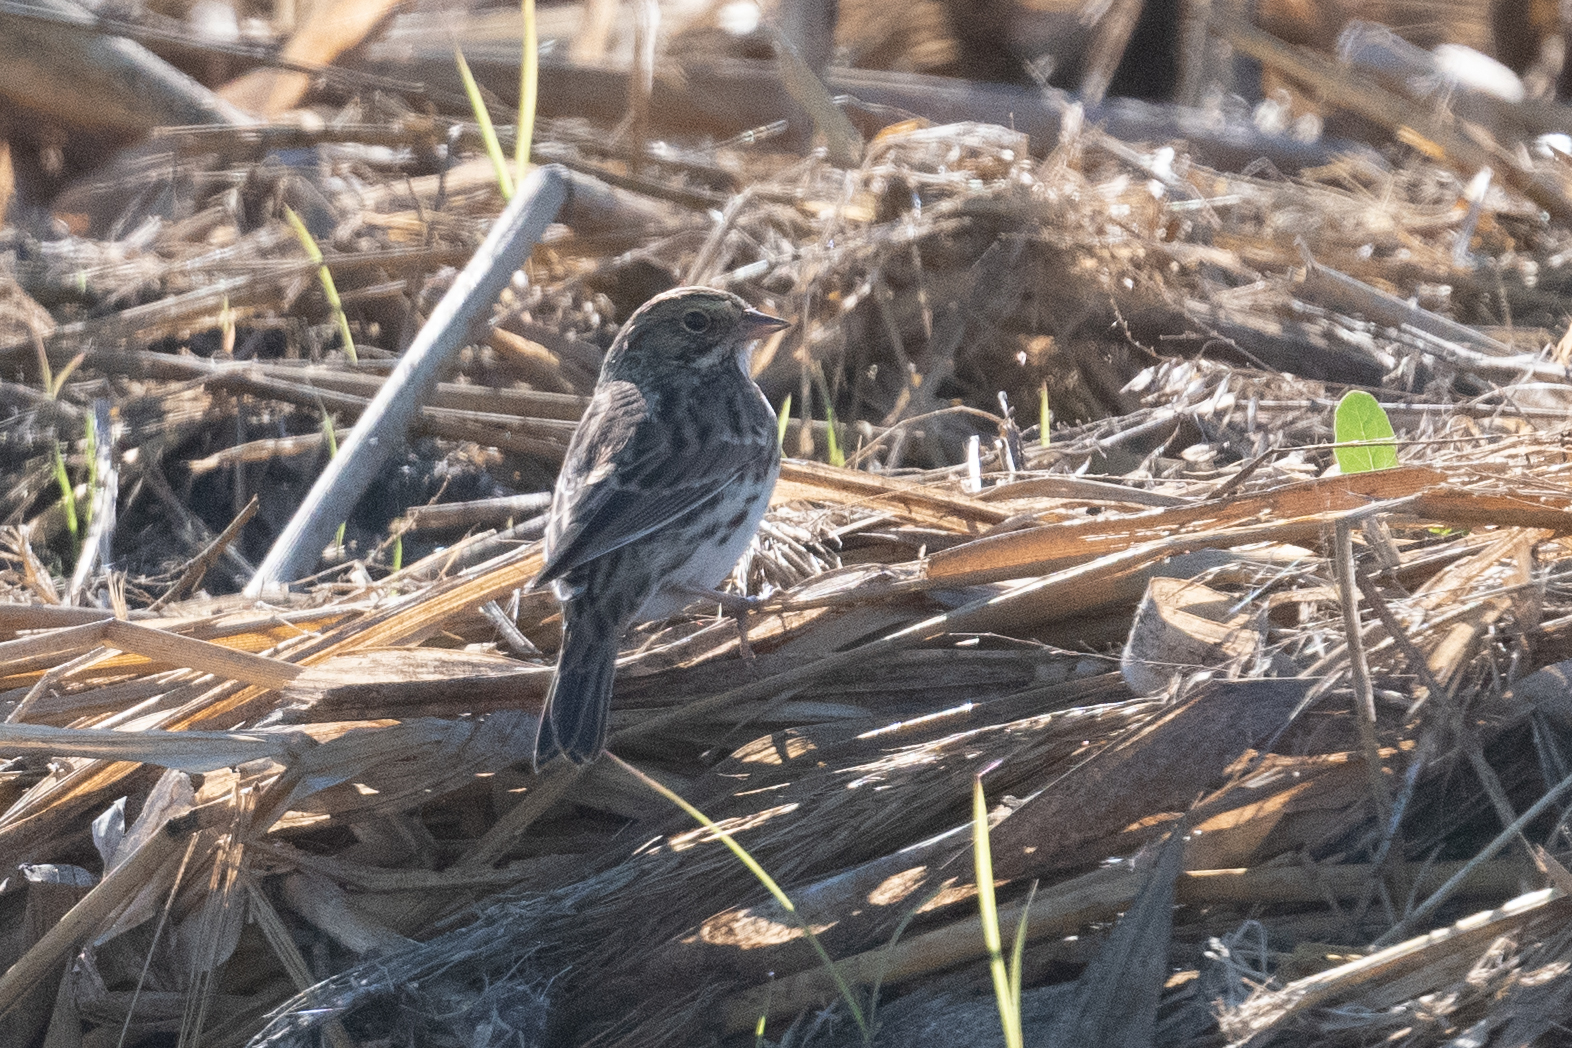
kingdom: Animalia
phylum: Chordata
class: Aves
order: Passeriformes
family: Passerellidae
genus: Passerculus
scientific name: Passerculus sandwichensis
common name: Savannah sparrow
